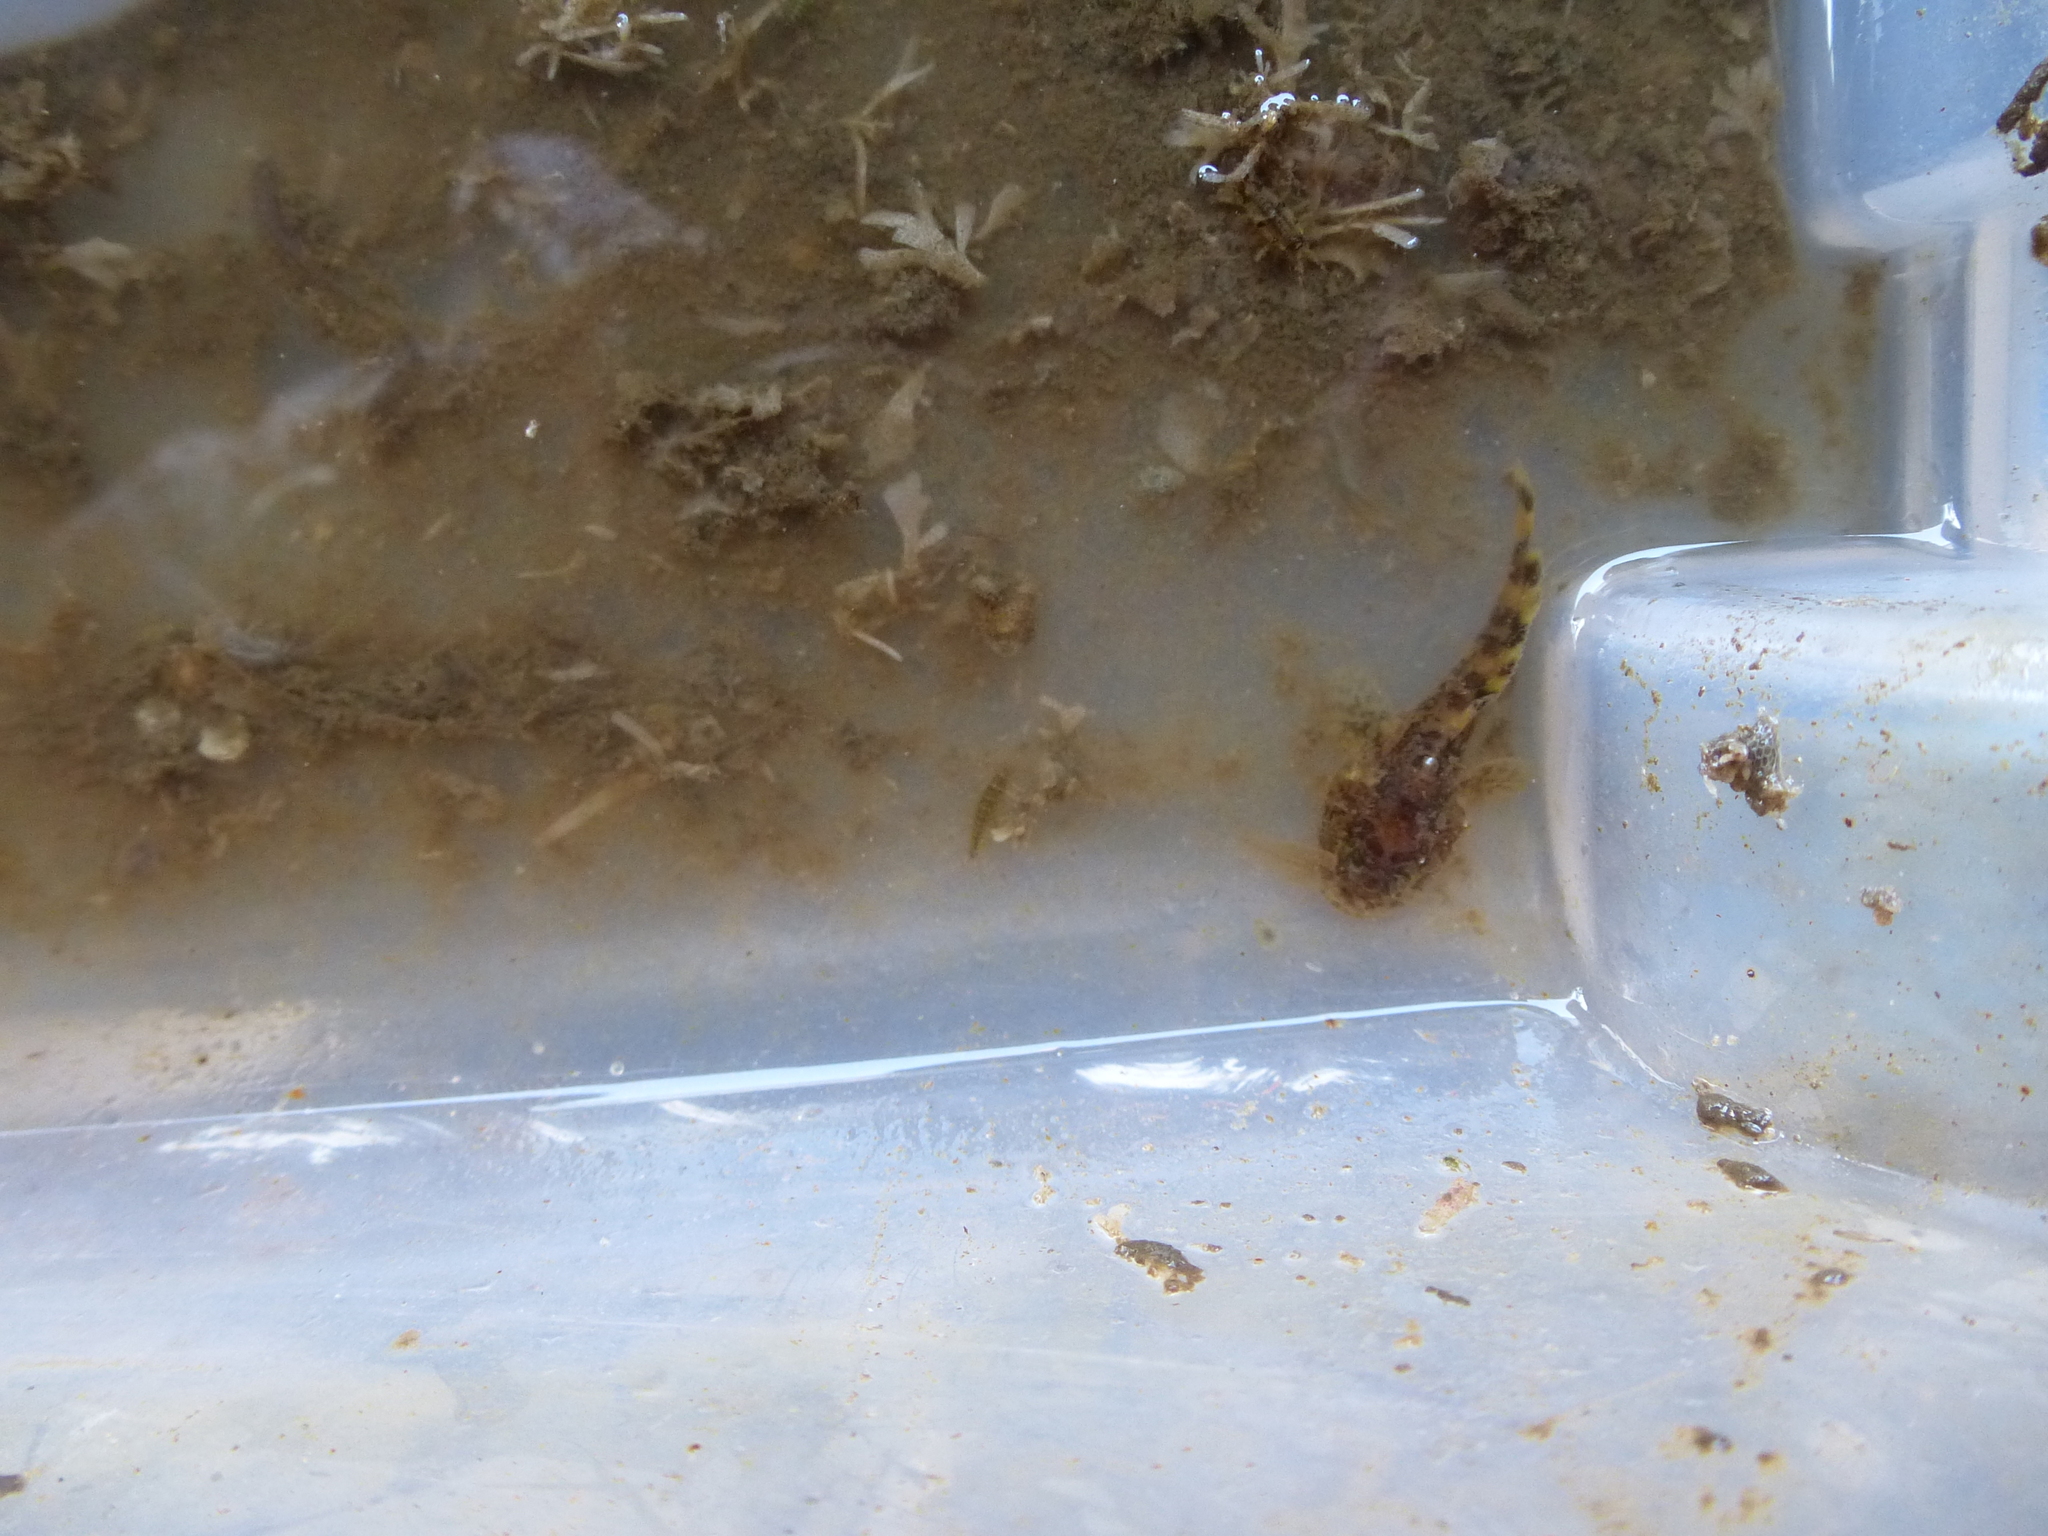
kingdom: Animalia
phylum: Chordata
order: Batrachoidiformes
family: Batrachoididae
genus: Opsanus
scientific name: Opsanus tau
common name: Oyster toadfish
